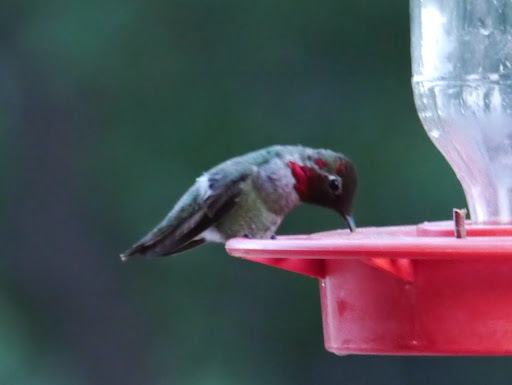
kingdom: Animalia
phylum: Chordata
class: Aves
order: Apodiformes
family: Trochilidae
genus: Calypte
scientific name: Calypte anna
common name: Anna's hummingbird
